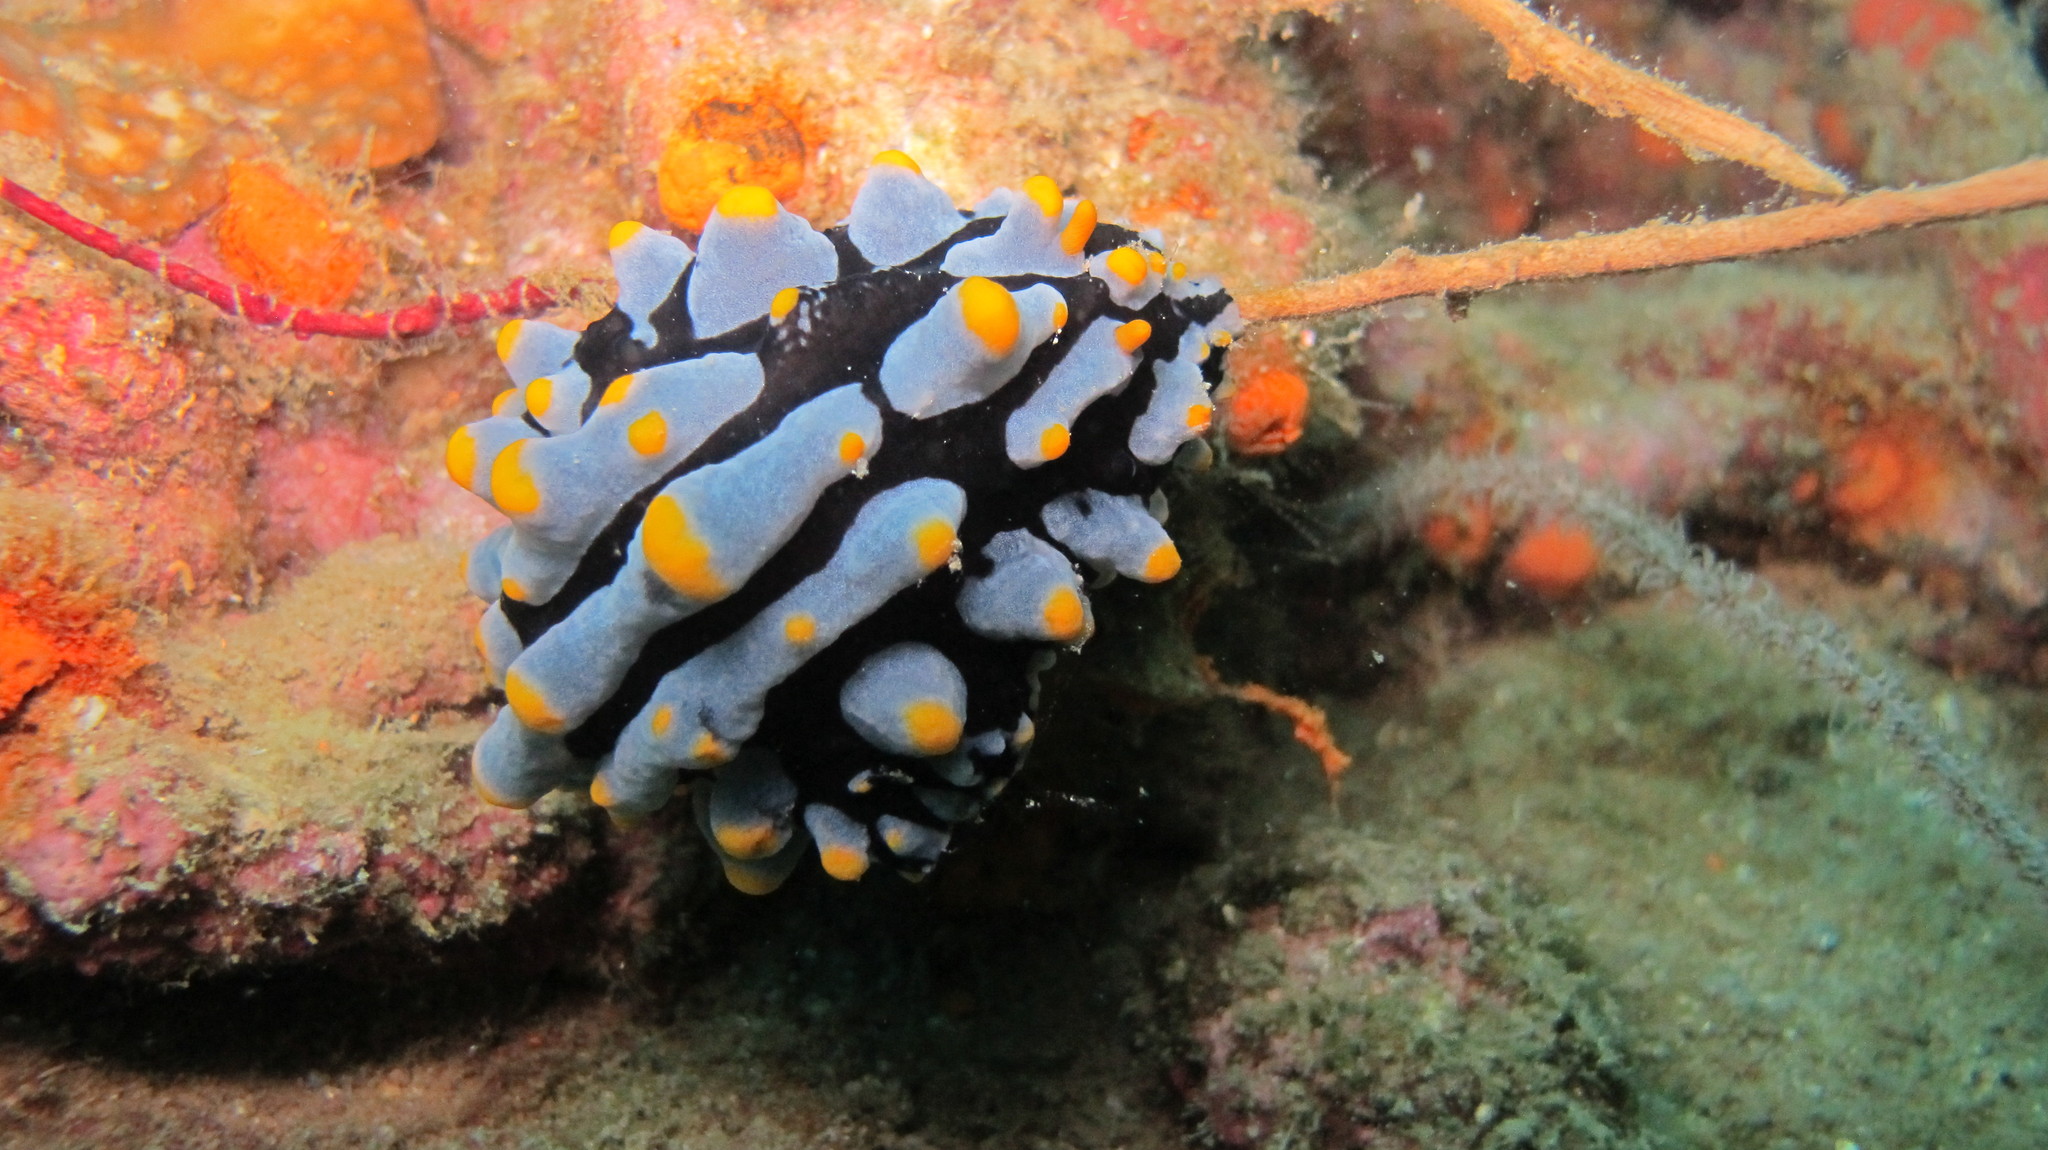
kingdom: Animalia
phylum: Mollusca
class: Gastropoda
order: Nudibranchia
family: Phyllidiidae
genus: Phyllidia
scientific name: Phyllidia varicosa
